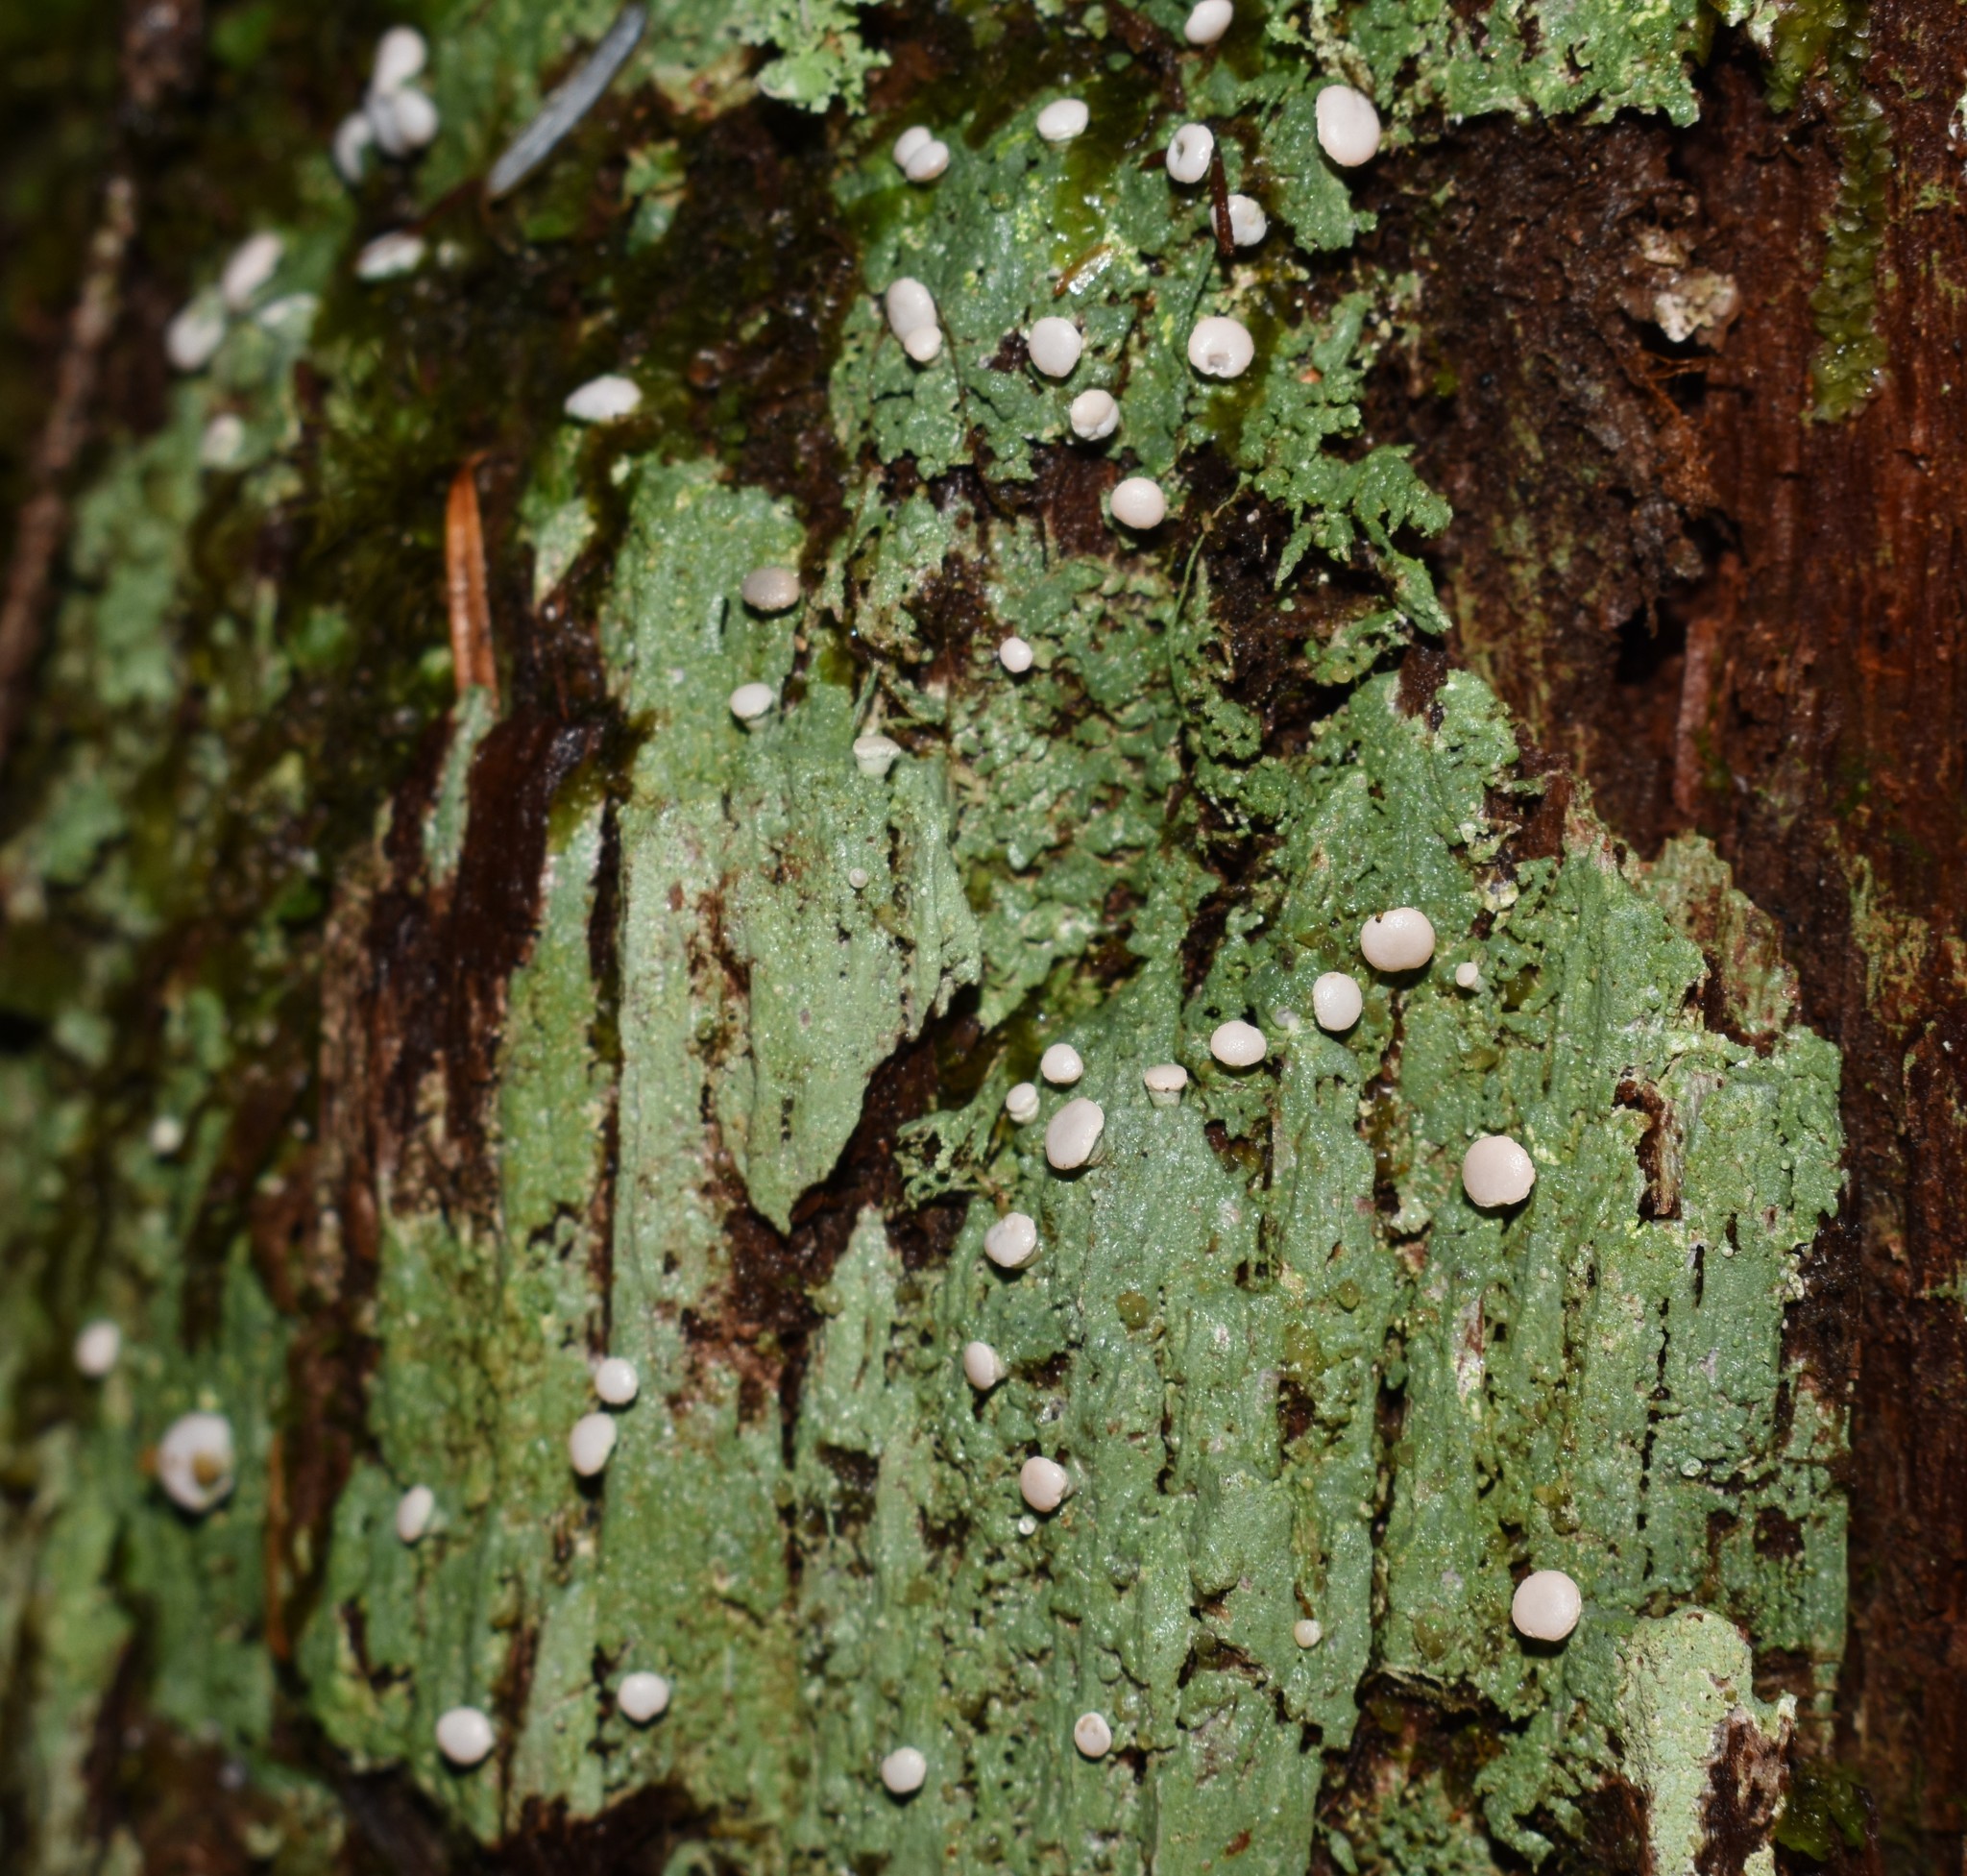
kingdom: Fungi
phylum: Ascomycota
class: Lecanoromycetes
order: Pertusariales
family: Icmadophilaceae
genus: Icmadophila
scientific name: Icmadophila ericetorum
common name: Candy lichen
